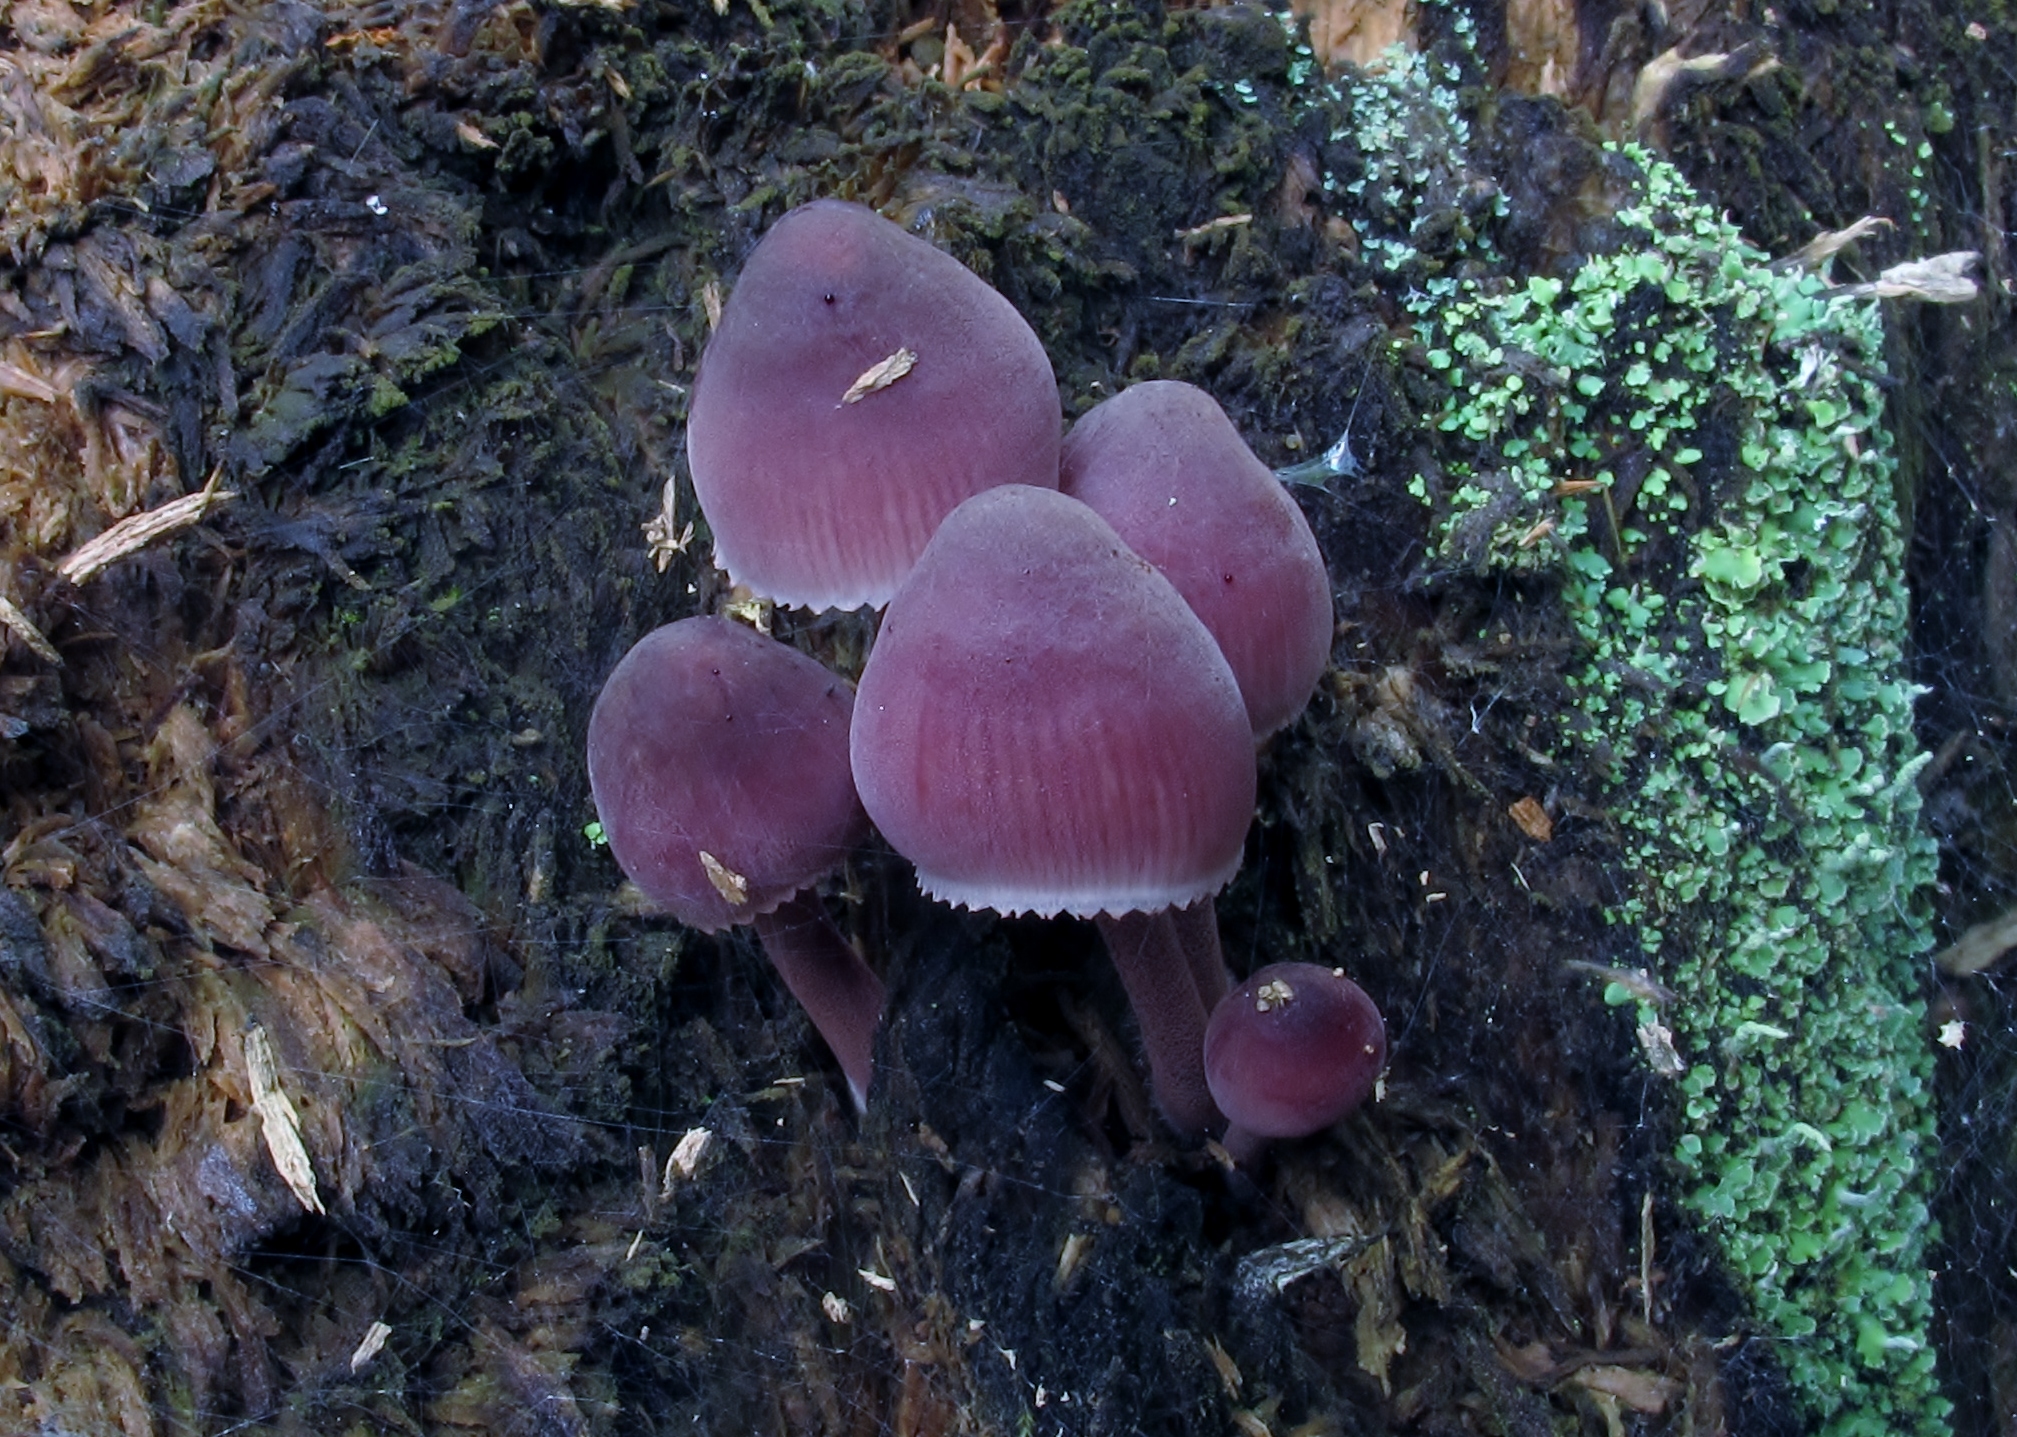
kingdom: Fungi
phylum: Basidiomycota
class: Agaricomycetes
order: Agaricales
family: Mycenaceae
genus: Mycena
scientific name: Mycena haematopus
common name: Burgundydrop bonnet
